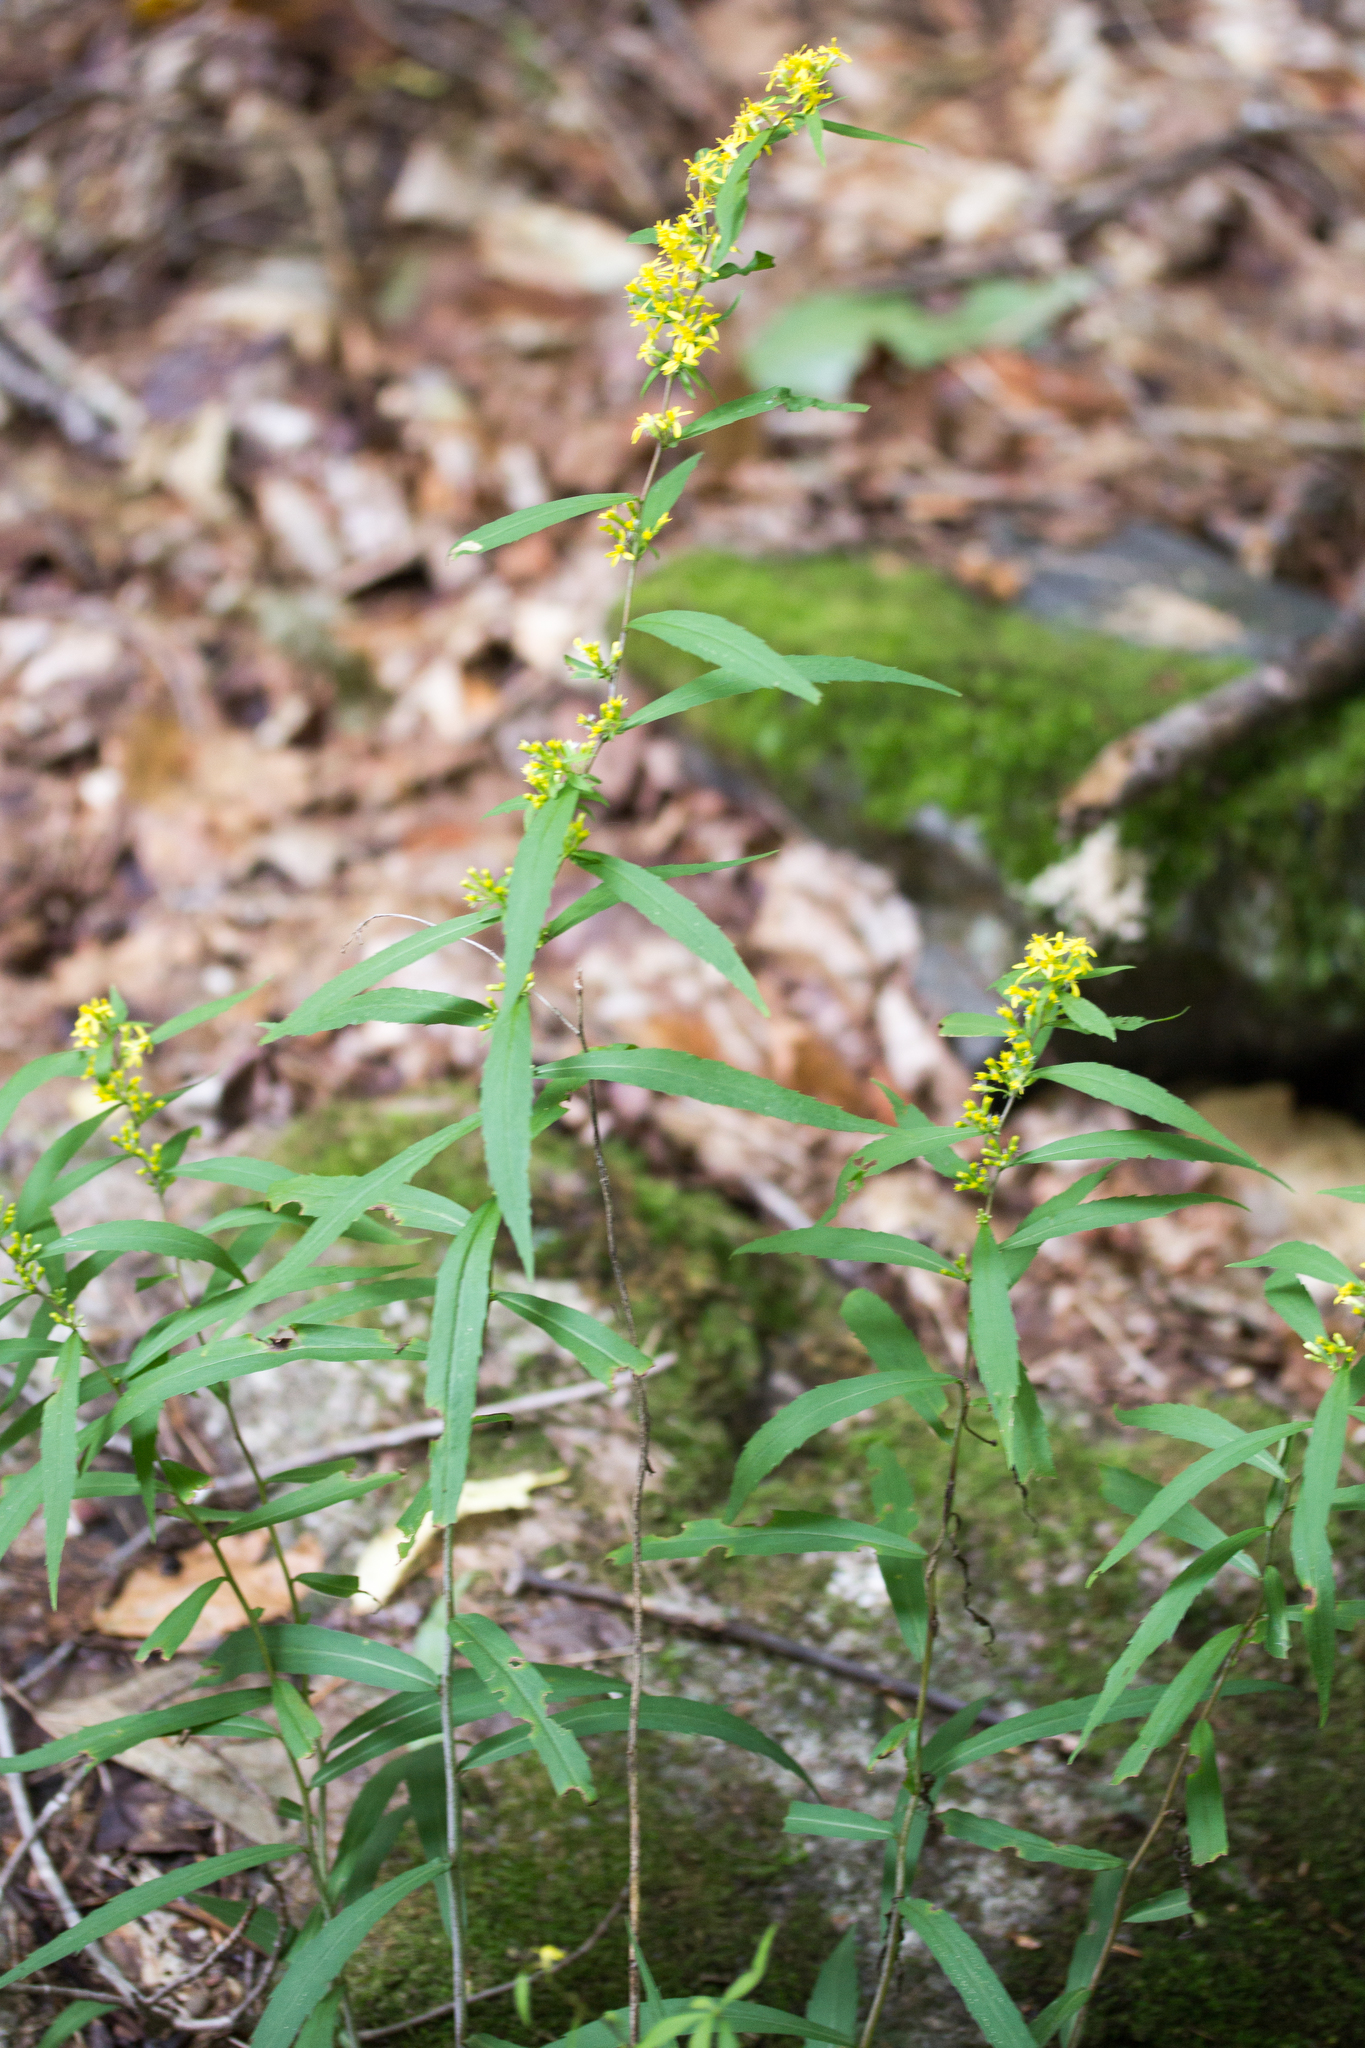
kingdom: Plantae
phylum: Tracheophyta
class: Magnoliopsida
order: Asterales
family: Asteraceae
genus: Solidago
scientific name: Solidago caesia
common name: Woodland goldenrod
